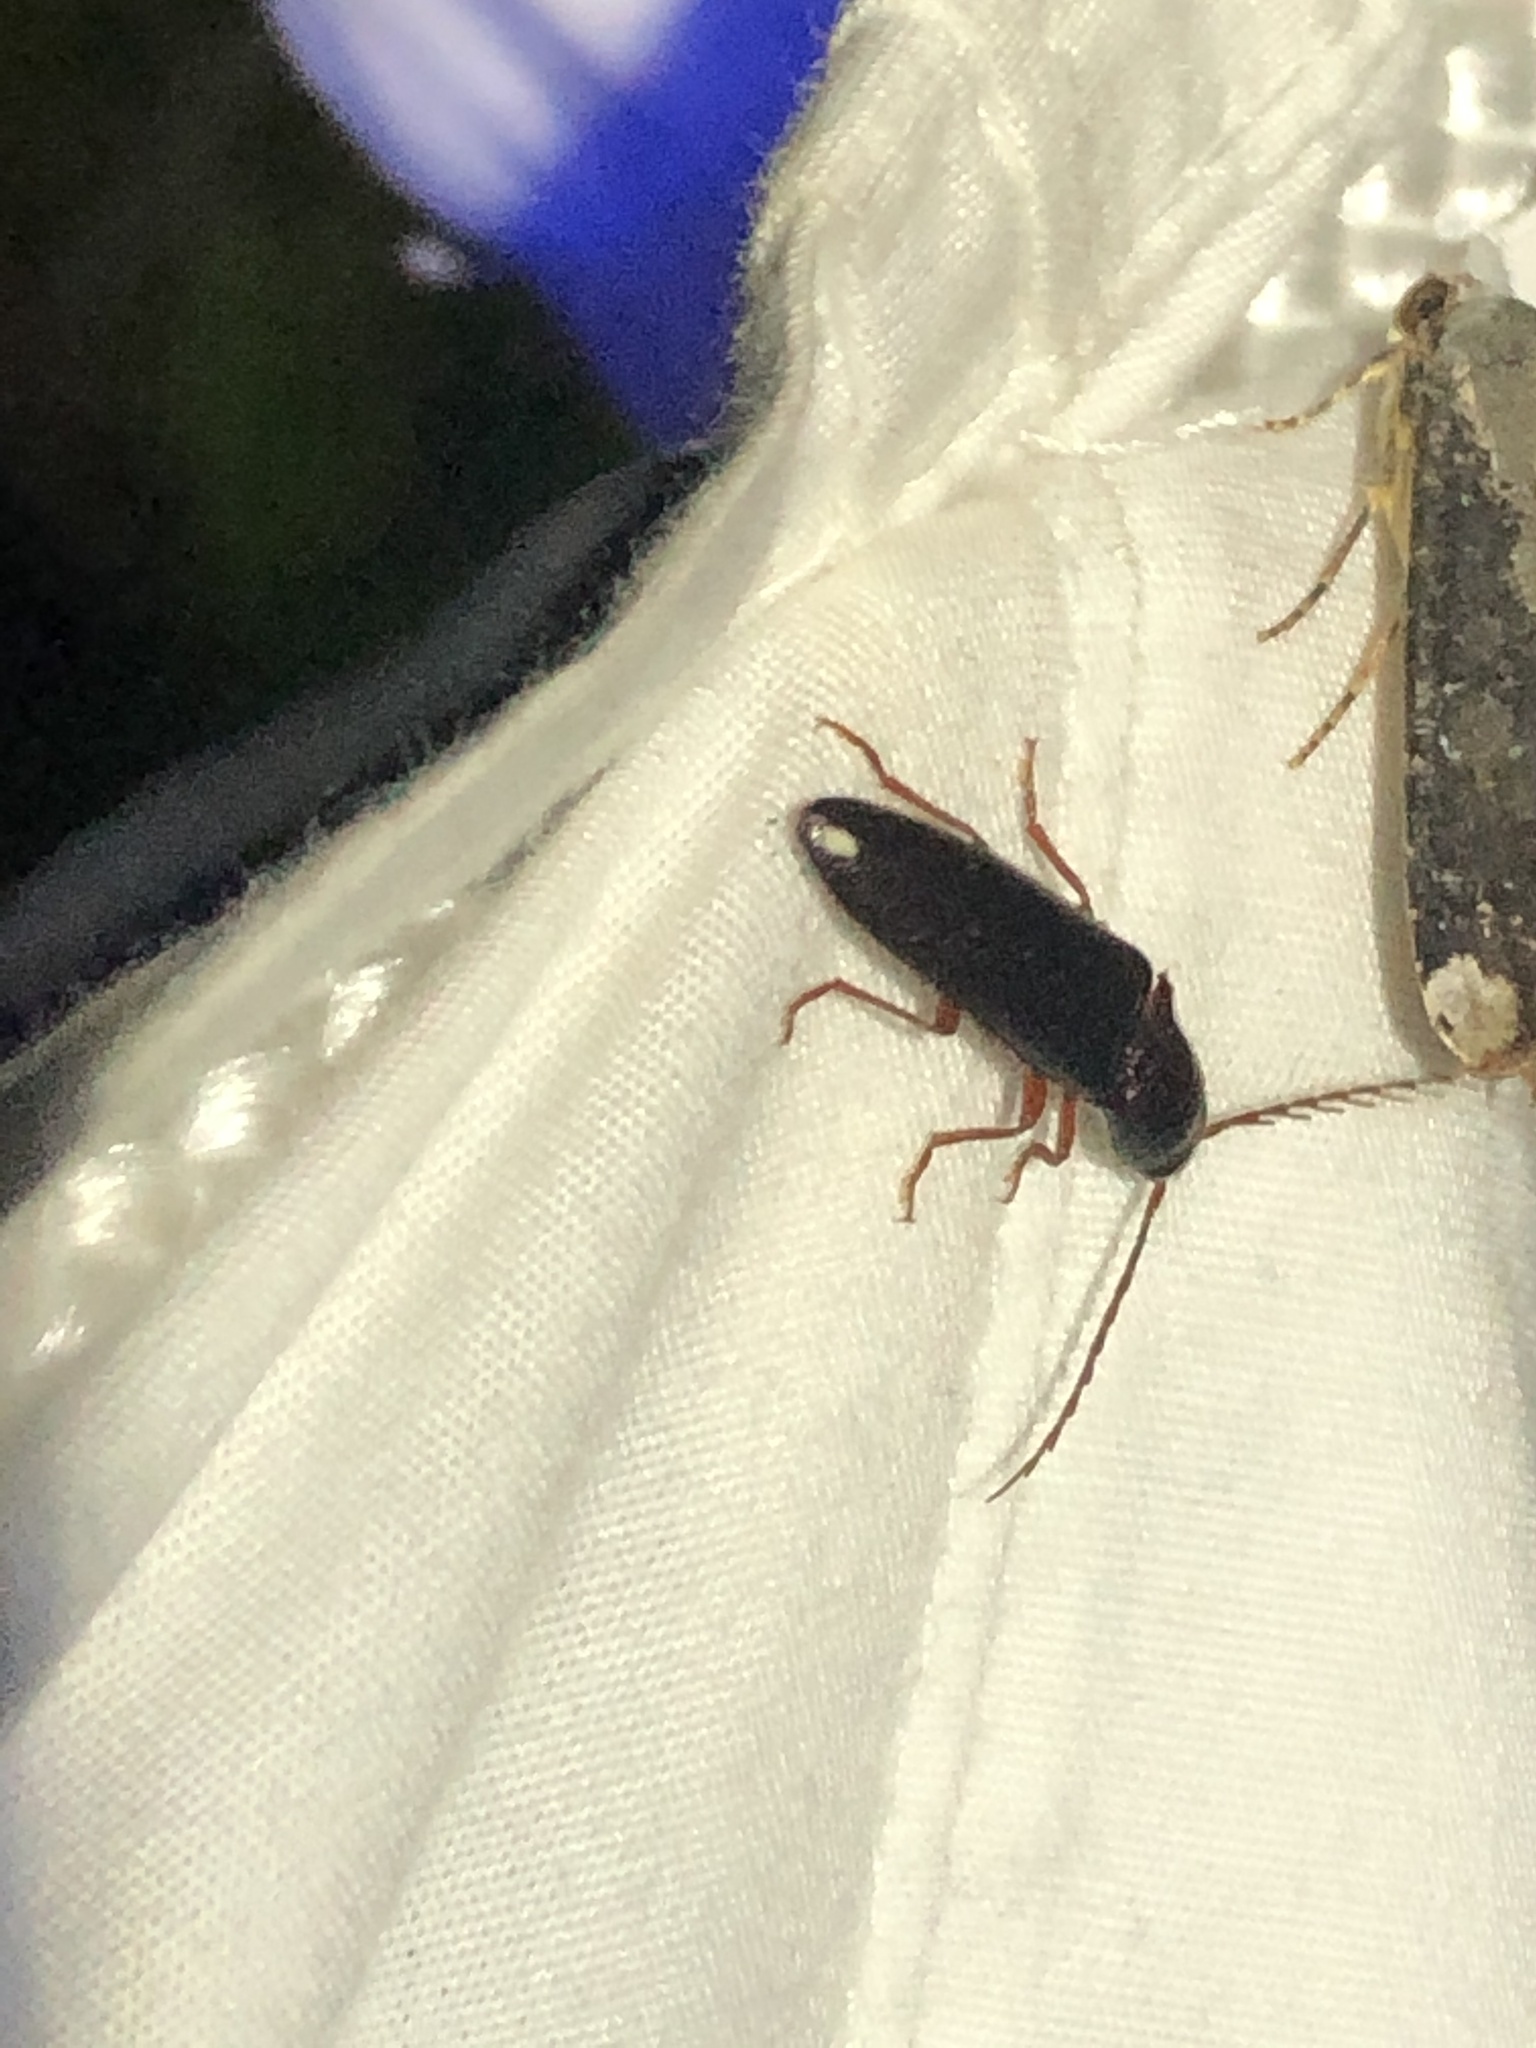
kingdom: Animalia
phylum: Arthropoda
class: Insecta
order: Coleoptera
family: Elateridae
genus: Dicrepidius
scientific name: Dicrepidius corvinus
